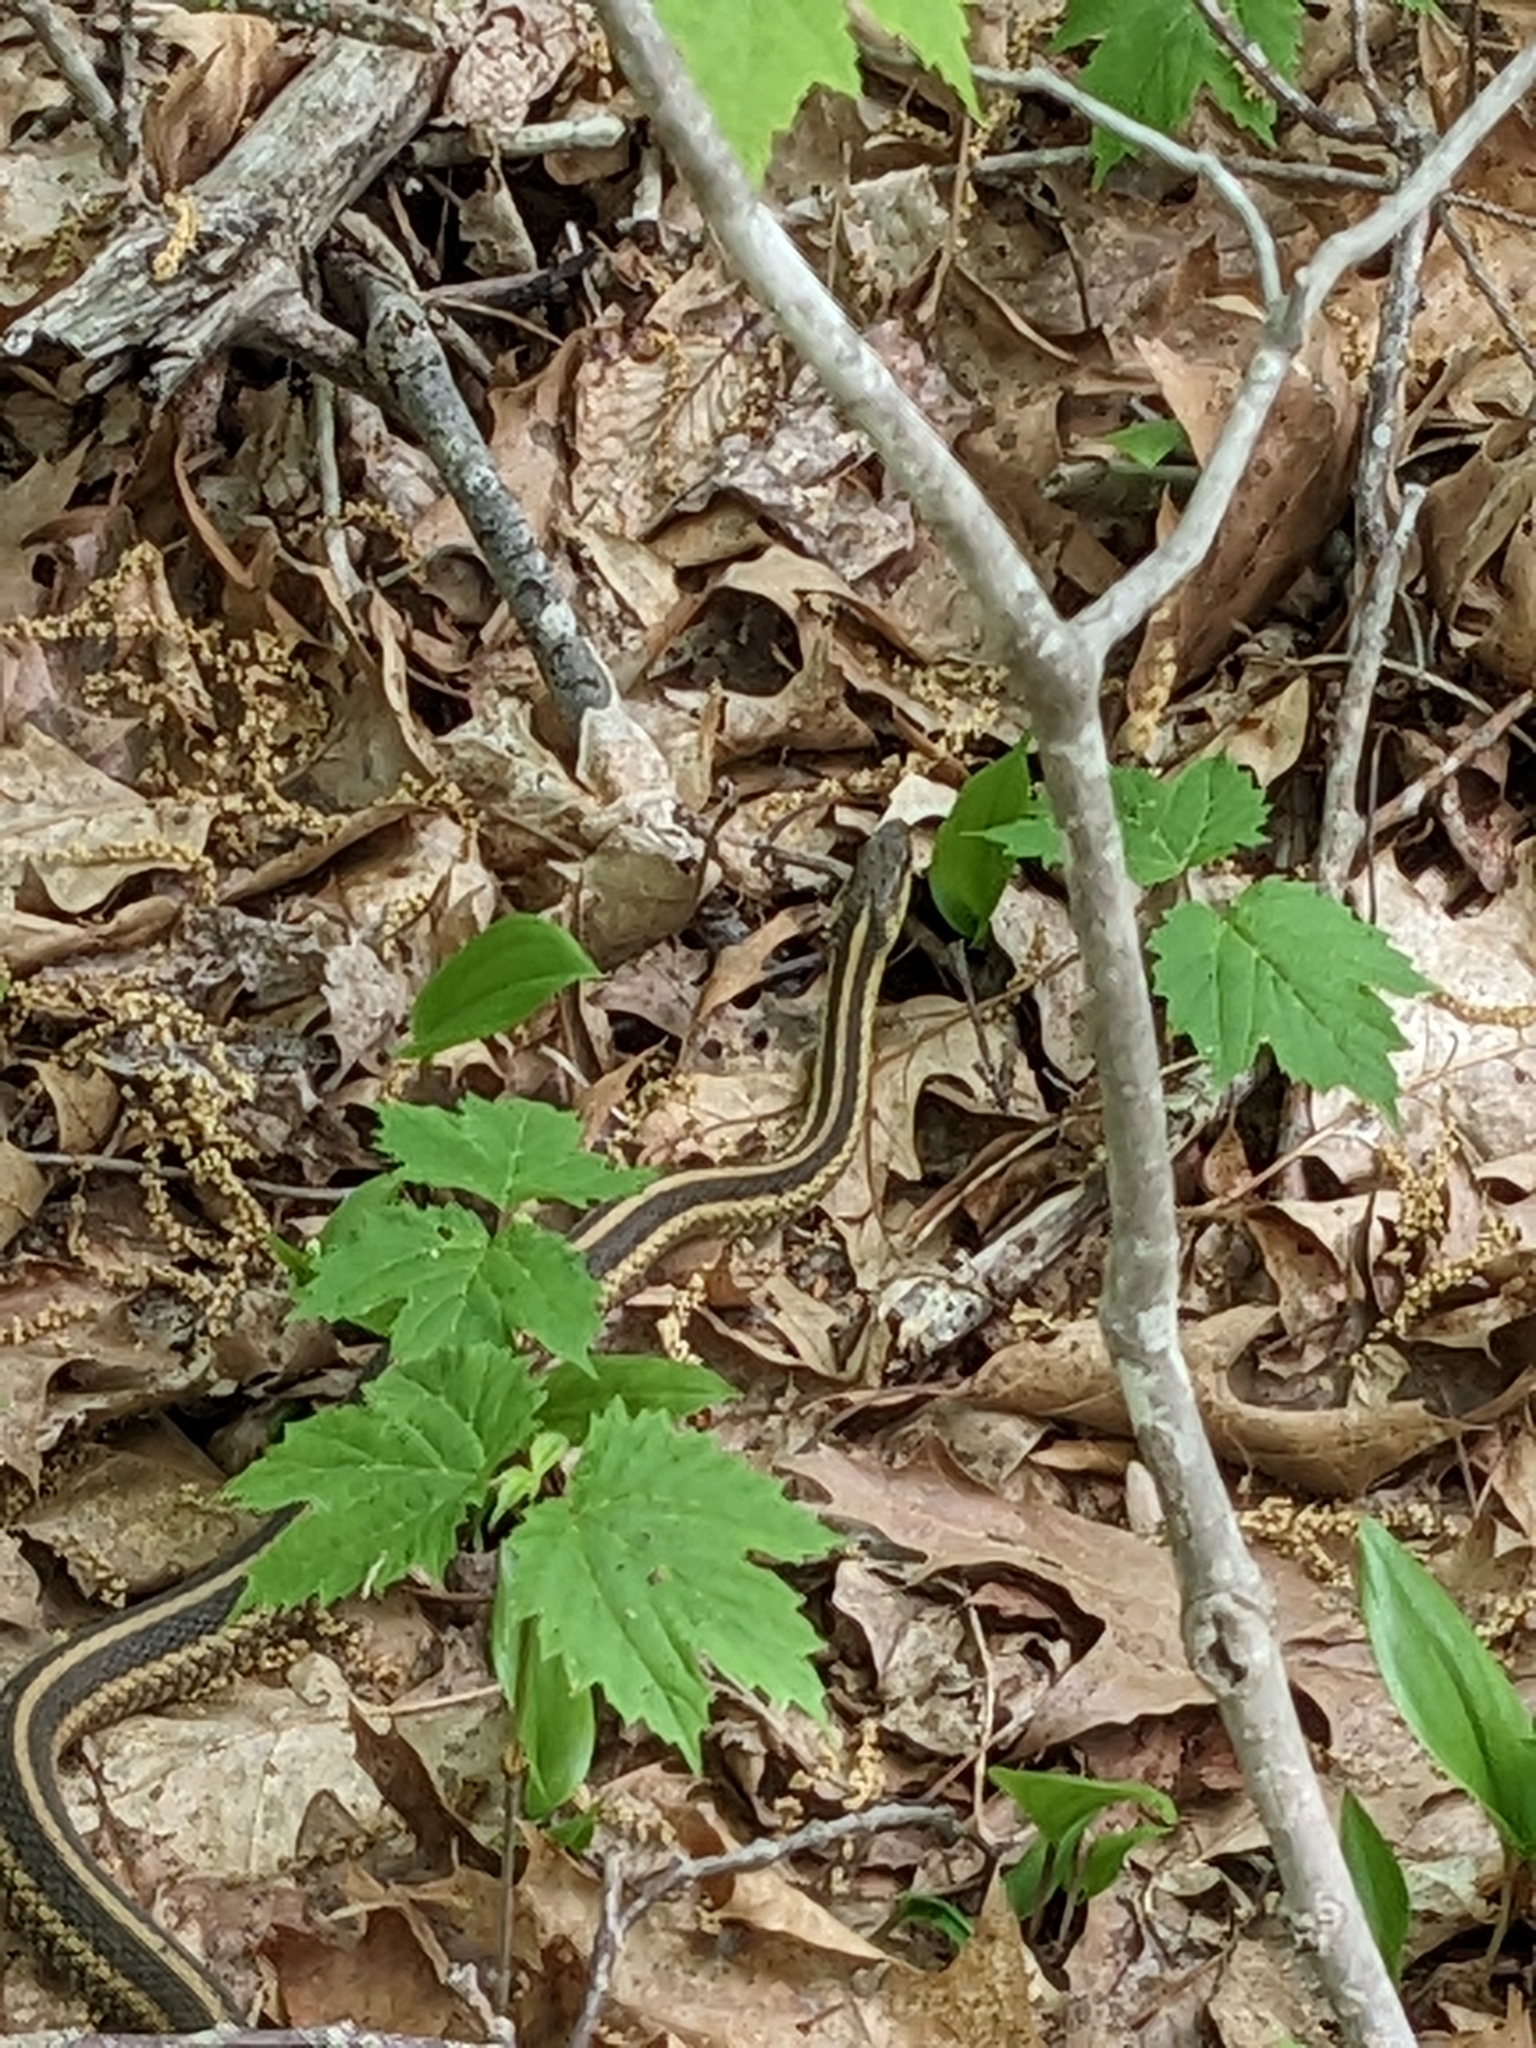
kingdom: Animalia
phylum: Chordata
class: Squamata
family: Colubridae
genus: Thamnophis
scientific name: Thamnophis sirtalis
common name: Common garter snake
